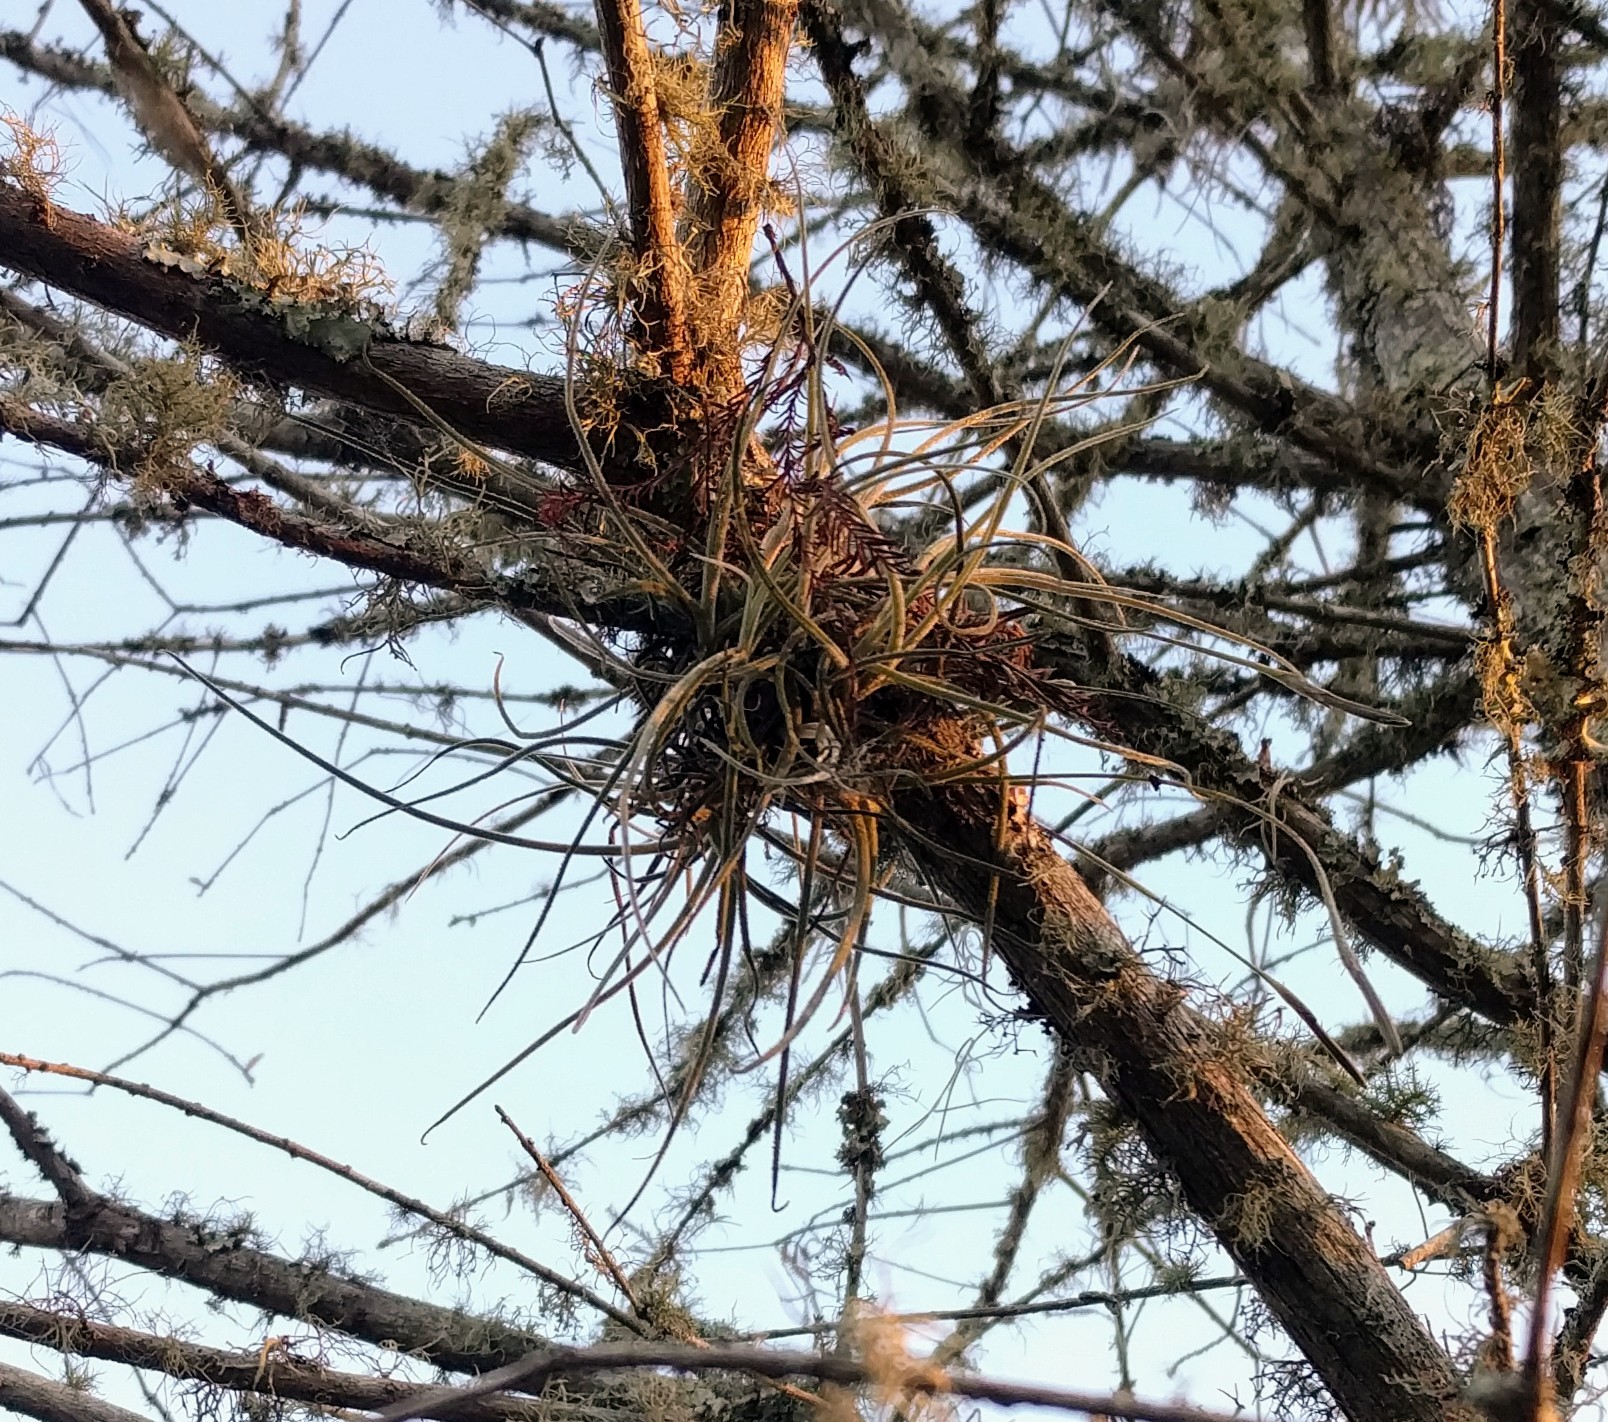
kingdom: Plantae
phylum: Tracheophyta
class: Liliopsida
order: Poales
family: Bromeliaceae
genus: Tillandsia
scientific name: Tillandsia recurvata
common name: Small ballmoss
